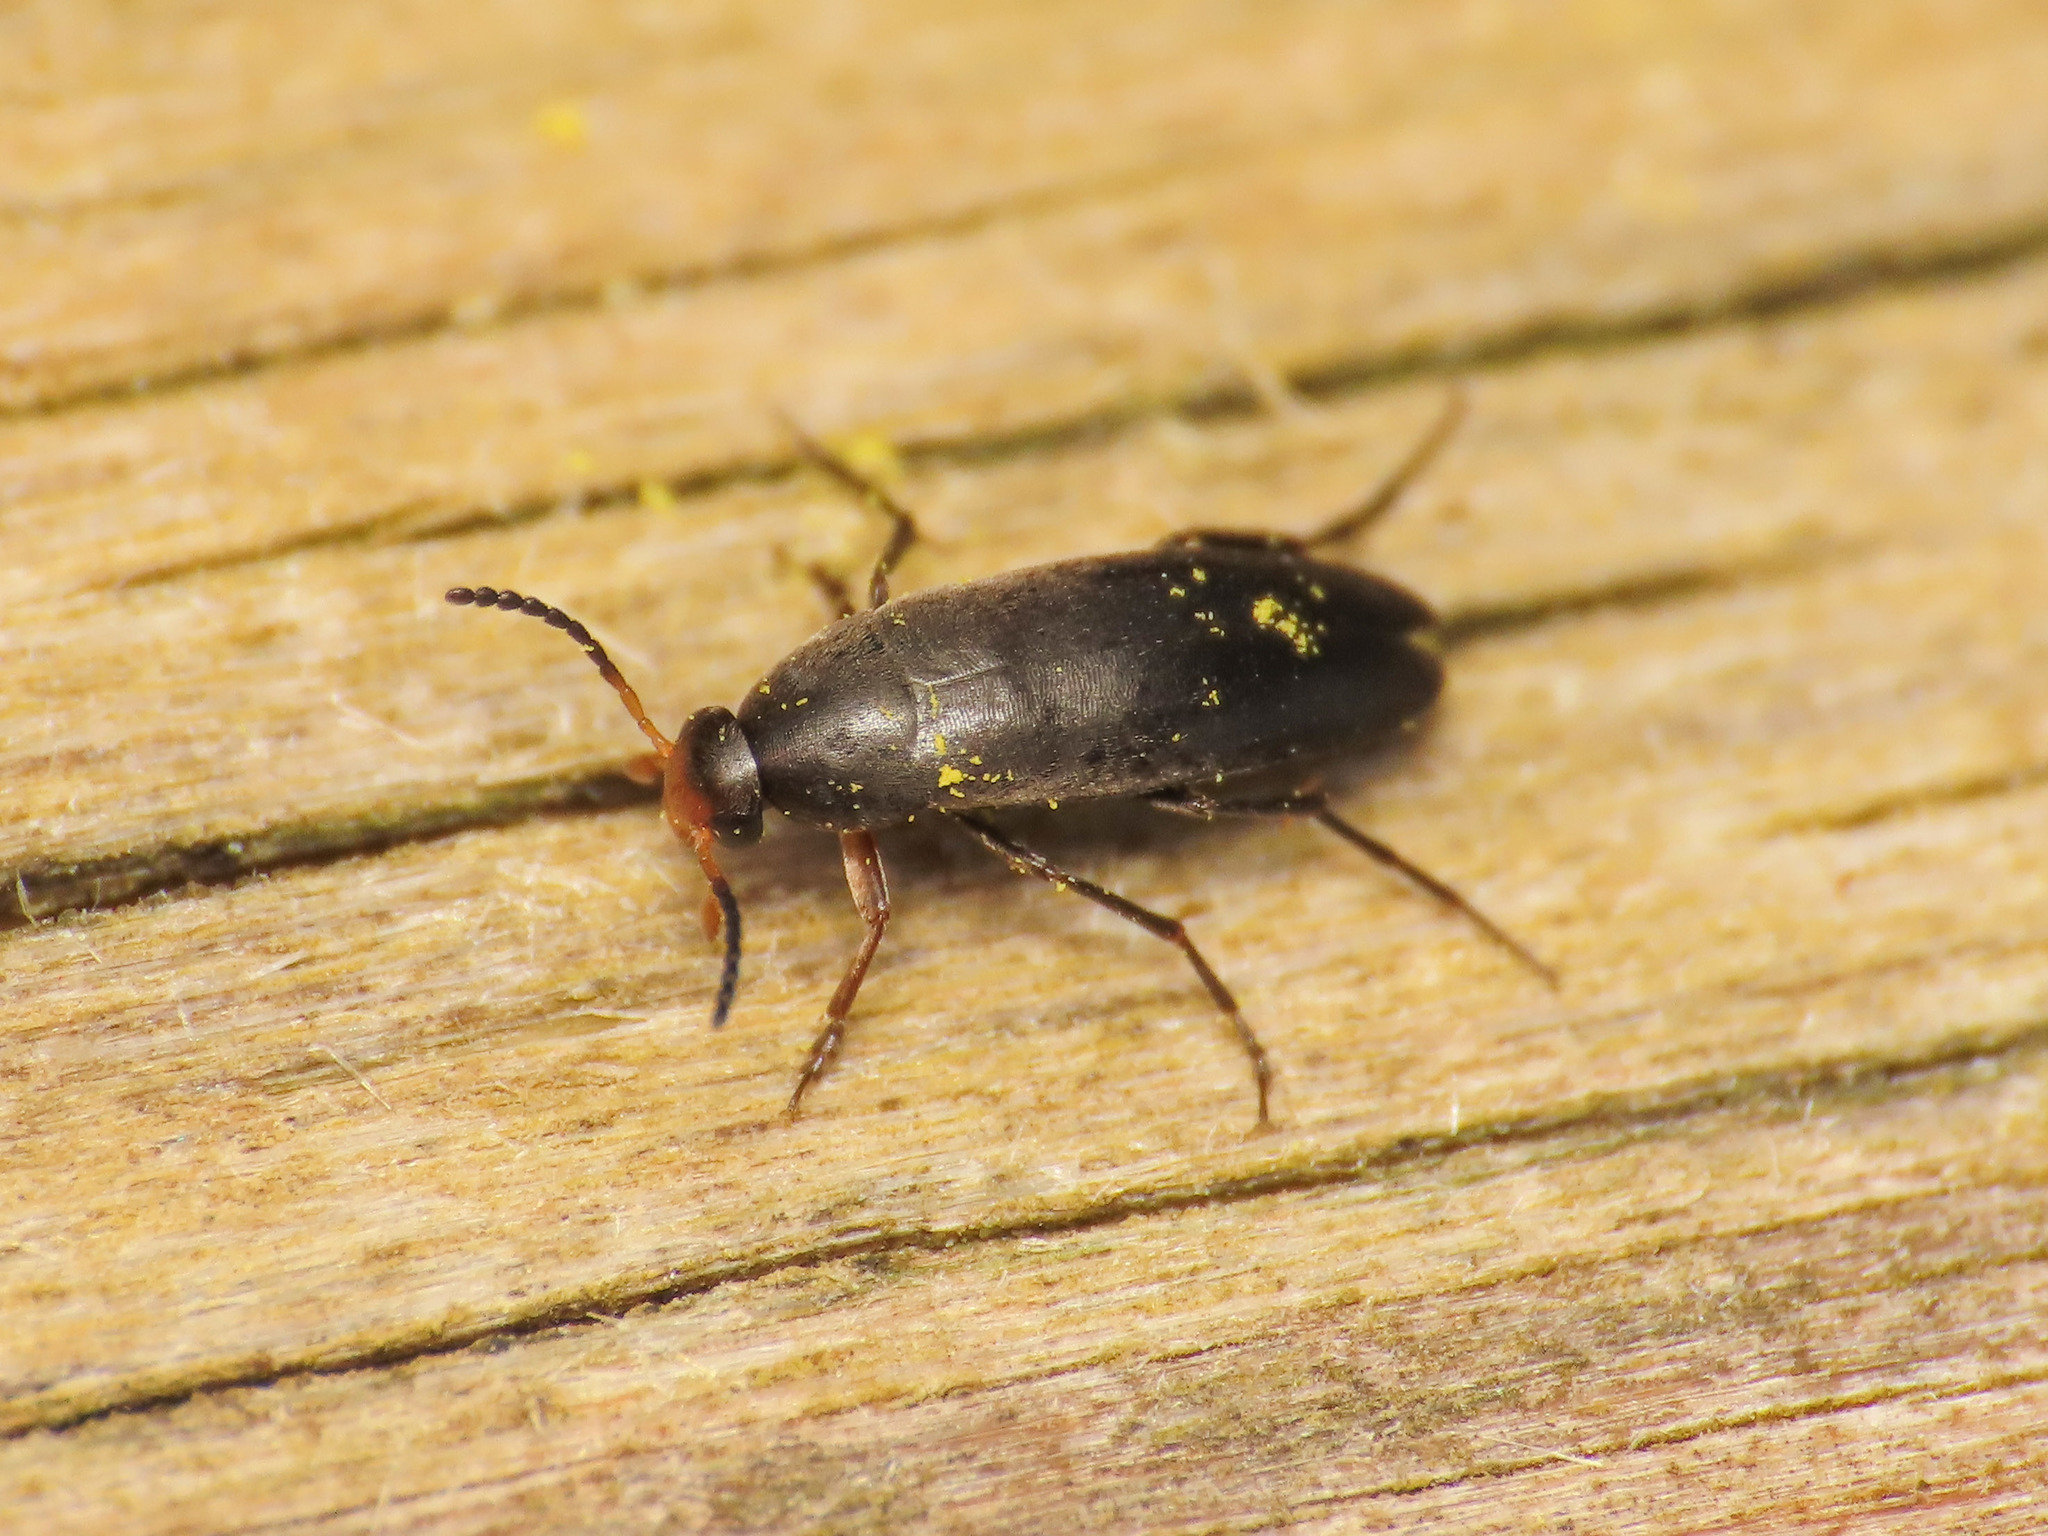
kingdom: Animalia
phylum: Arthropoda
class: Insecta
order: Coleoptera
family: Scraptiidae
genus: Anaspis
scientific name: Anaspis frontalis
